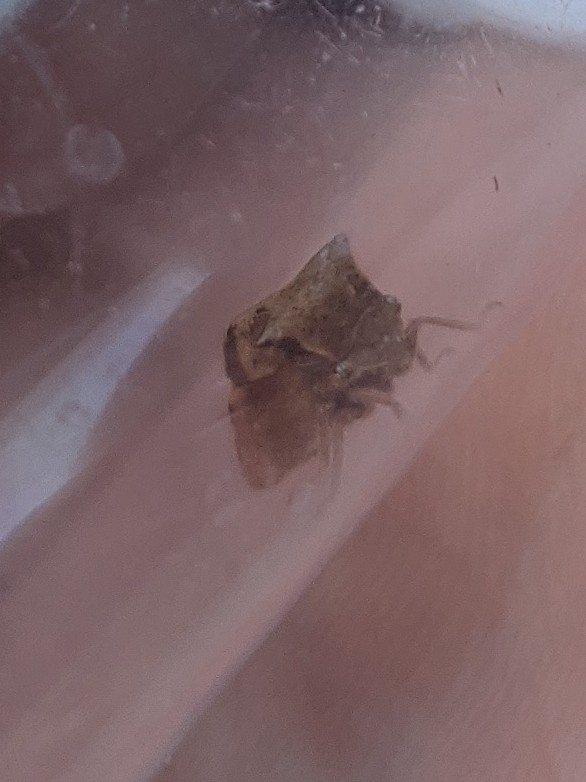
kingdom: Animalia
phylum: Arthropoda
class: Insecta
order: Hemiptera
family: Membracidae
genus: Stictocephala
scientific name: Stictocephala diceros
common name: Two-horned treehopper
